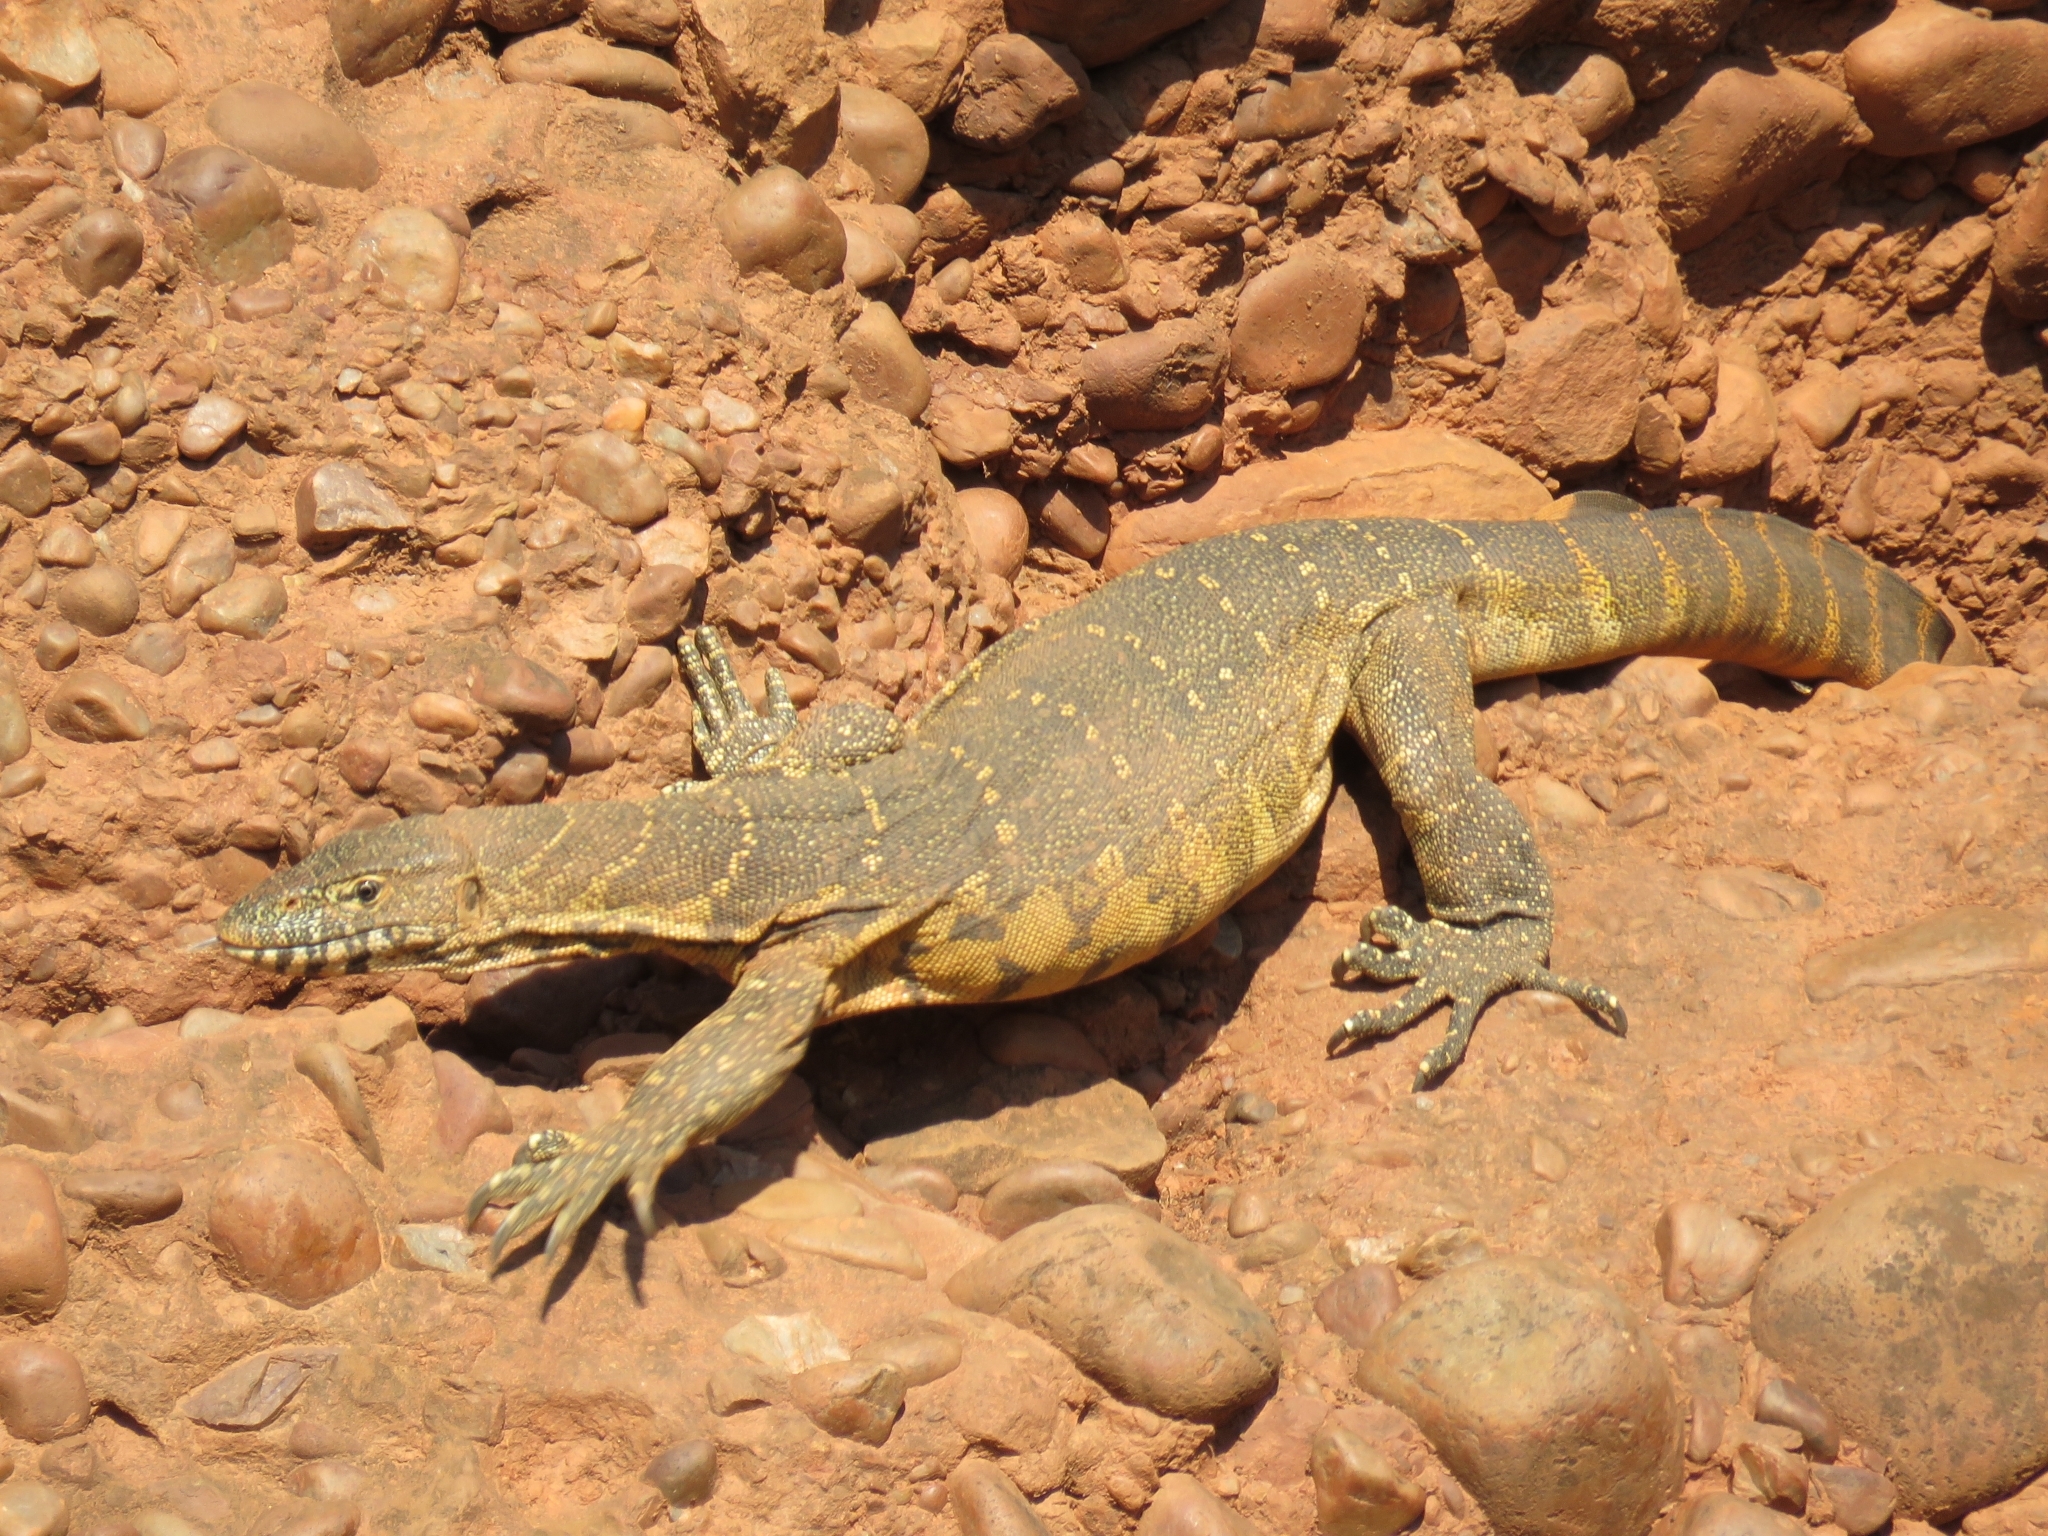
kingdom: Animalia
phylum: Chordata
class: Squamata
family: Varanidae
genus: Varanus
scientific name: Varanus niloticus
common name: Nile monitor
